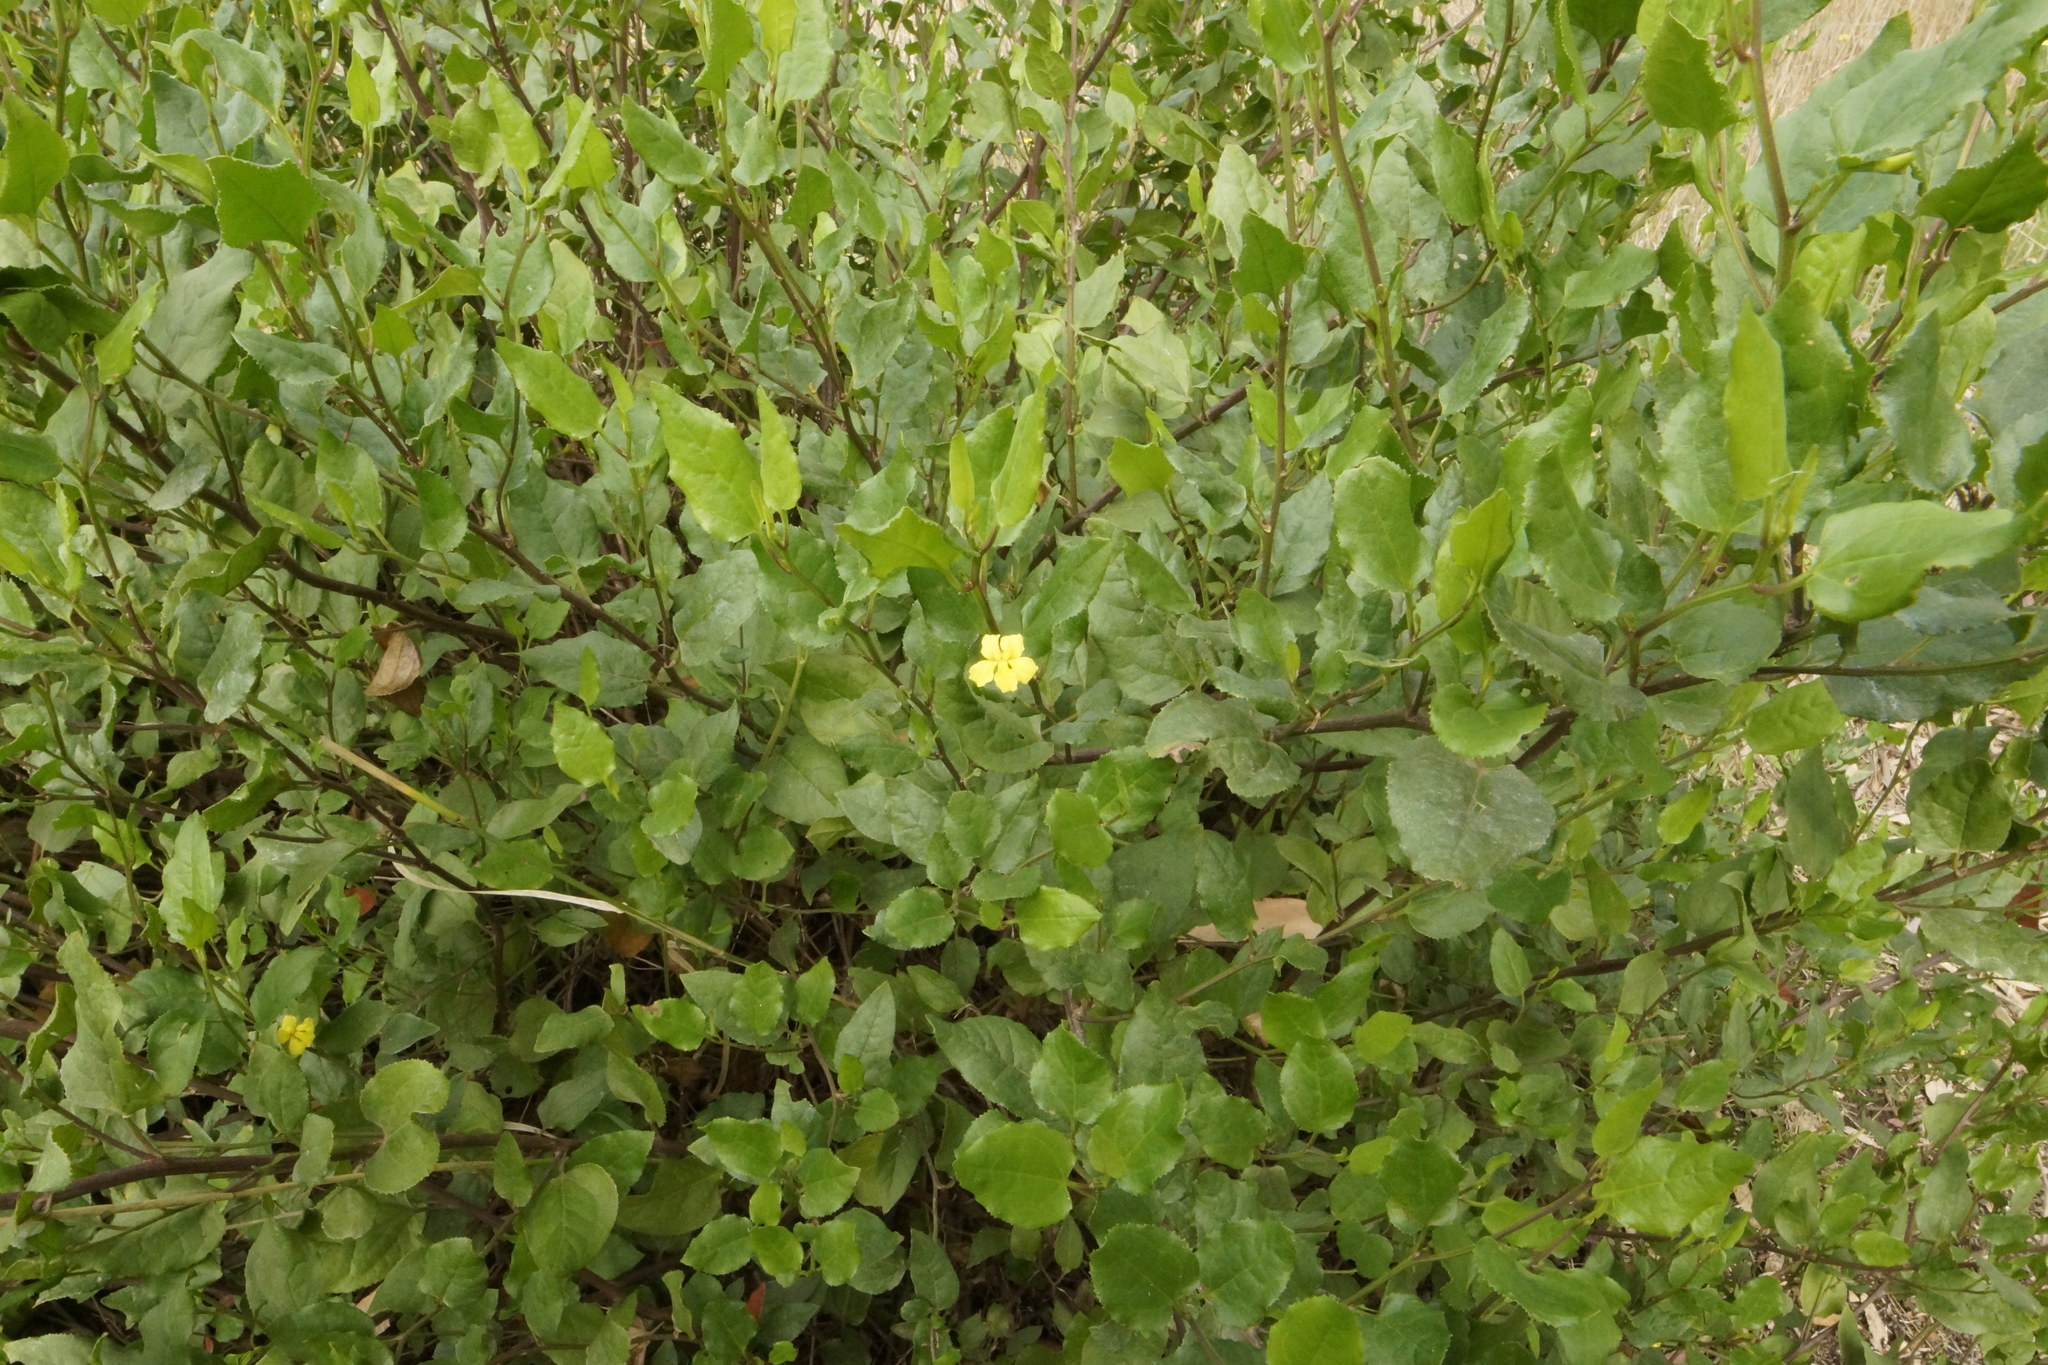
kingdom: Plantae
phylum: Tracheophyta
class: Magnoliopsida
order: Asterales
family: Goodeniaceae
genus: Goodenia
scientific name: Goodenia ovata
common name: Hop goodenia
